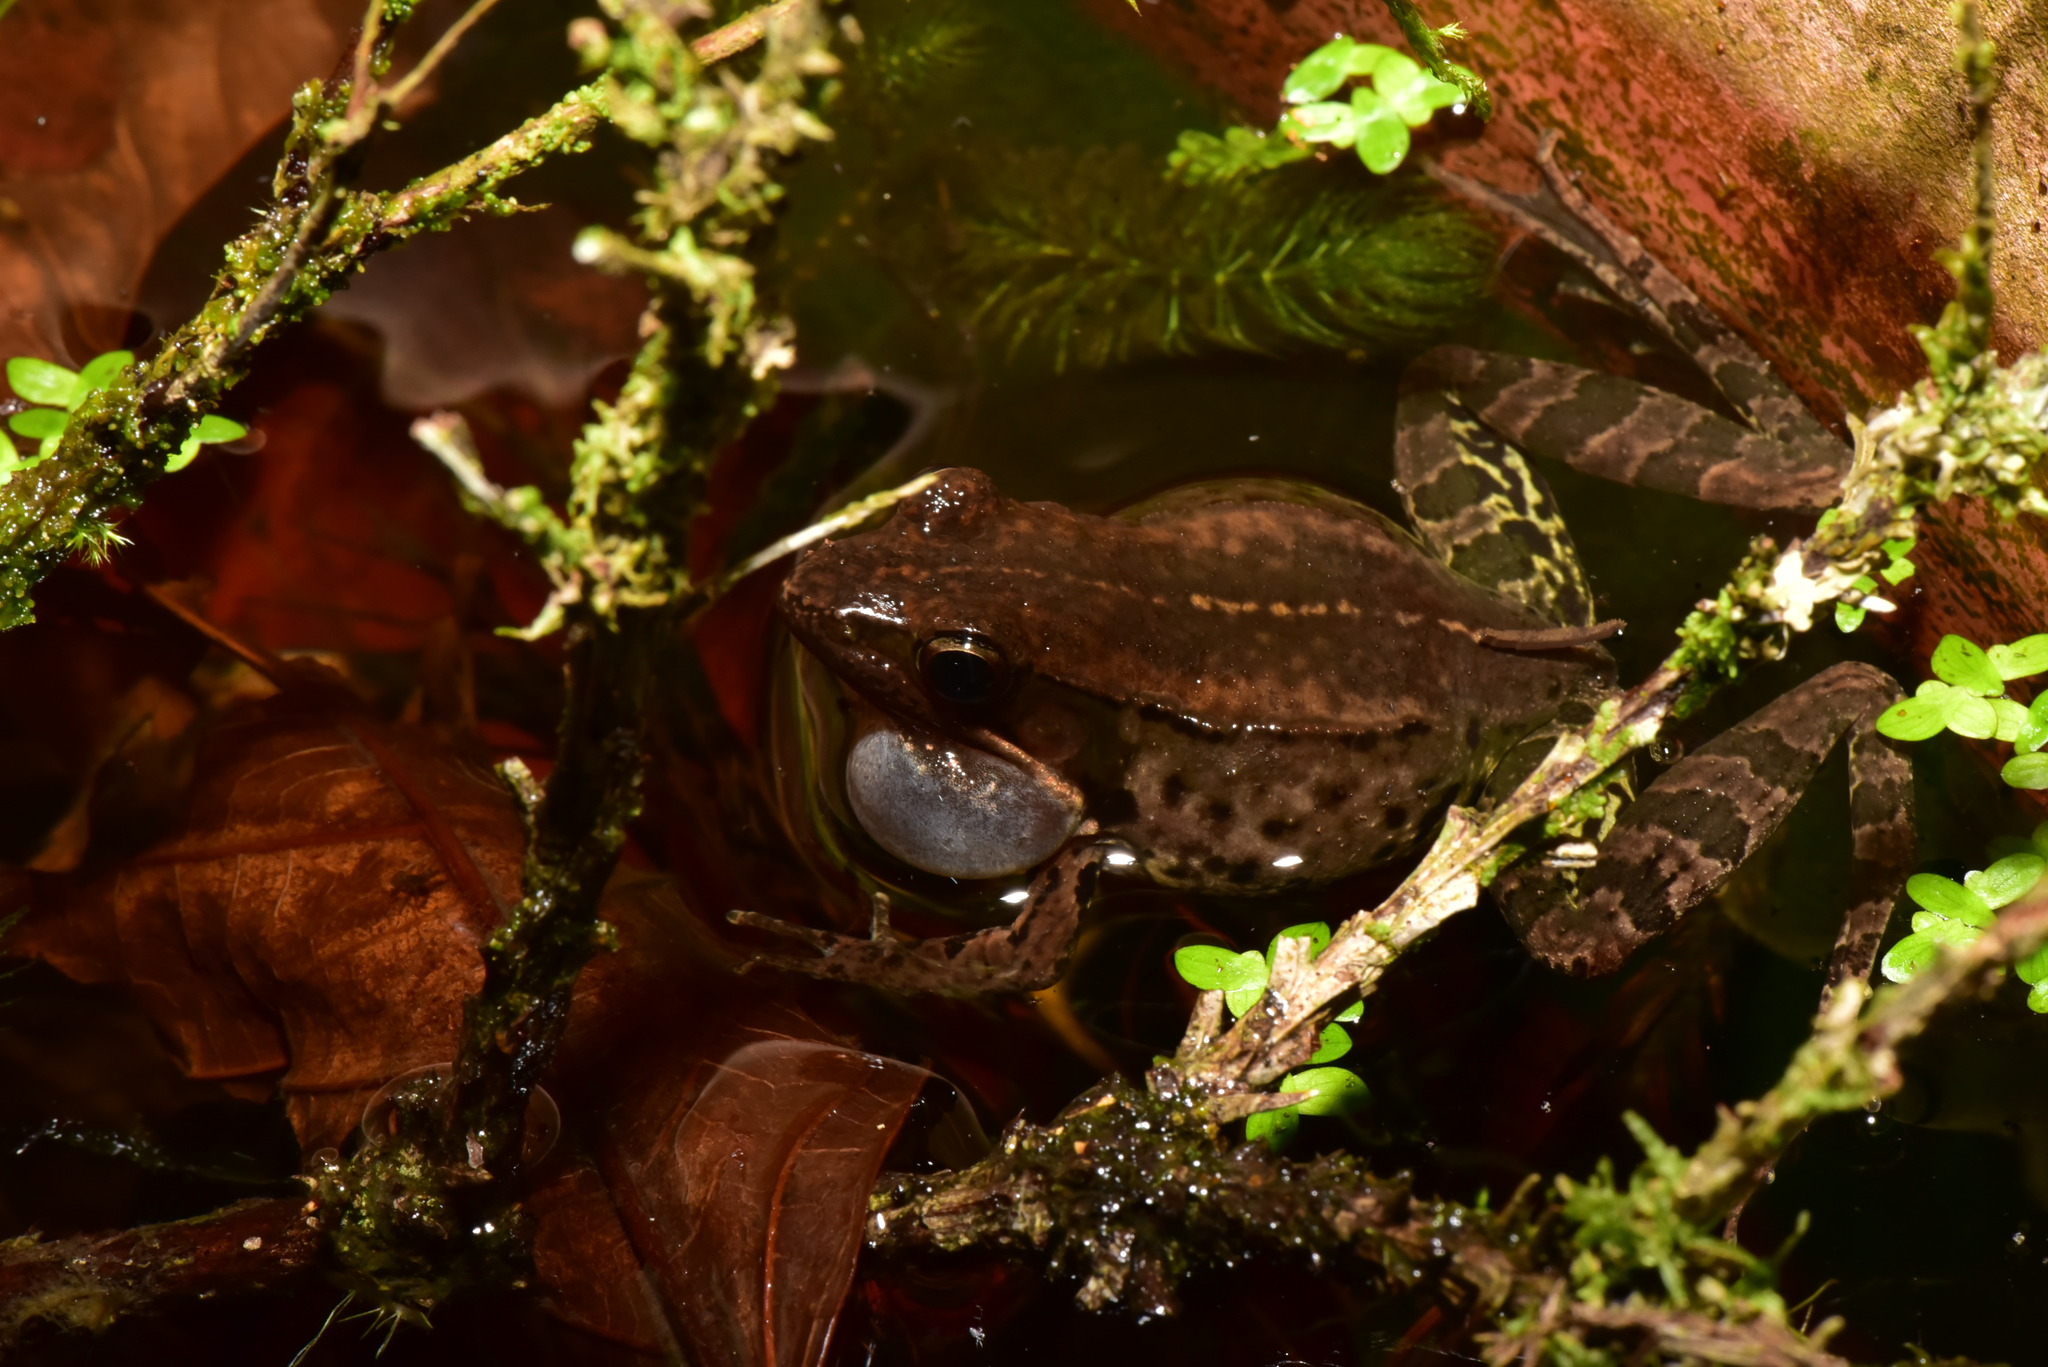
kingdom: Animalia
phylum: Chordata
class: Amphibia
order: Anura
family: Ranidae
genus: Nidirana
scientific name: Nidirana adenopleura
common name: Olive frog
